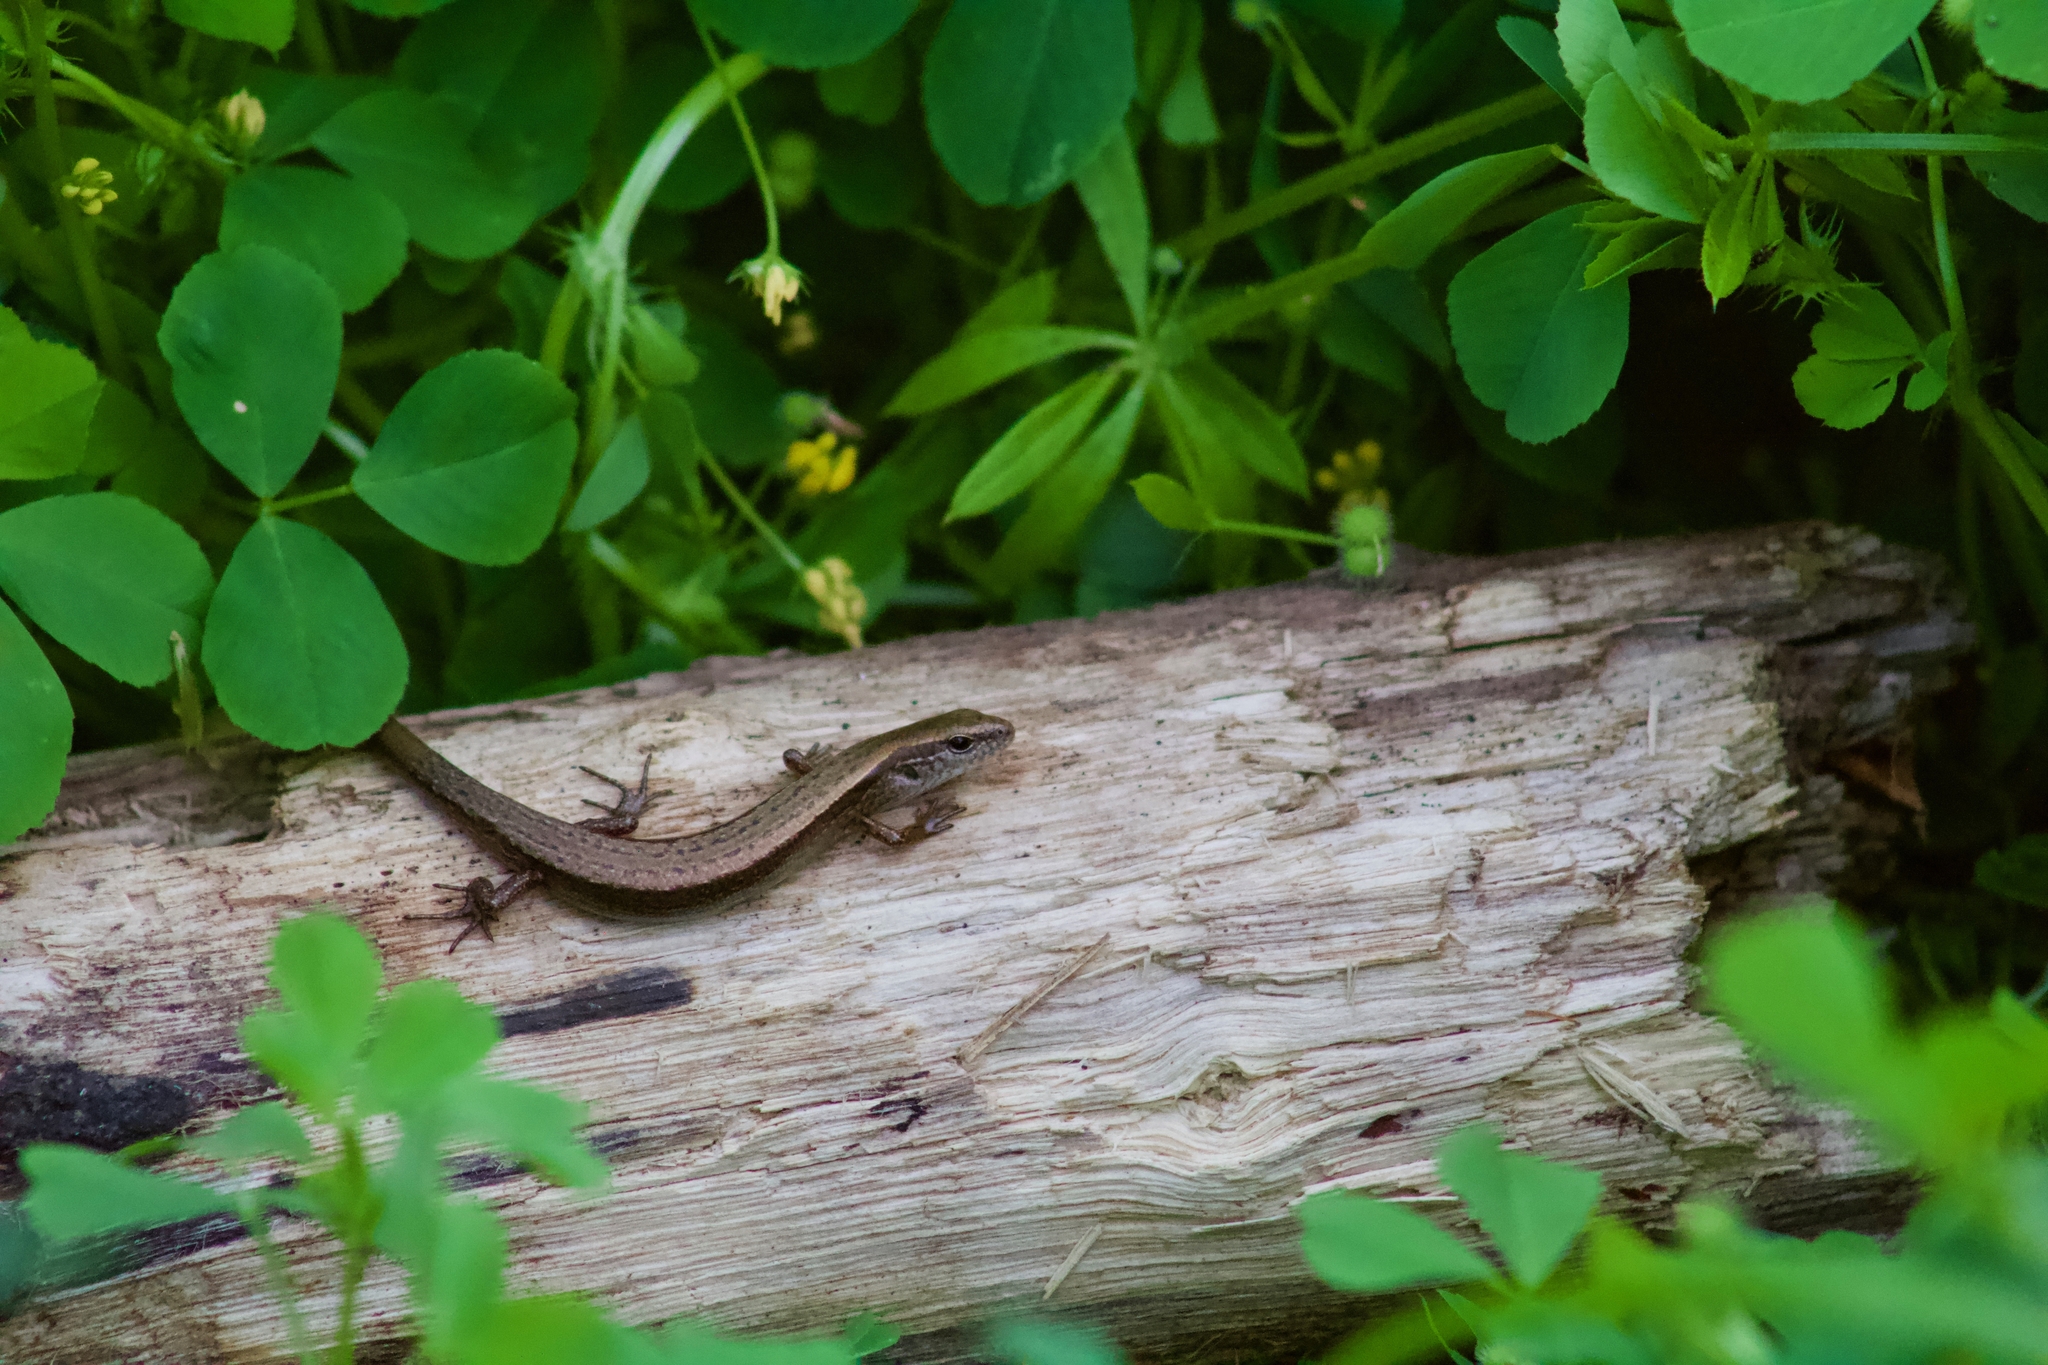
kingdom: Animalia
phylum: Chordata
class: Squamata
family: Scincidae
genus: Scincella
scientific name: Scincella lateralis
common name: Ground skink
